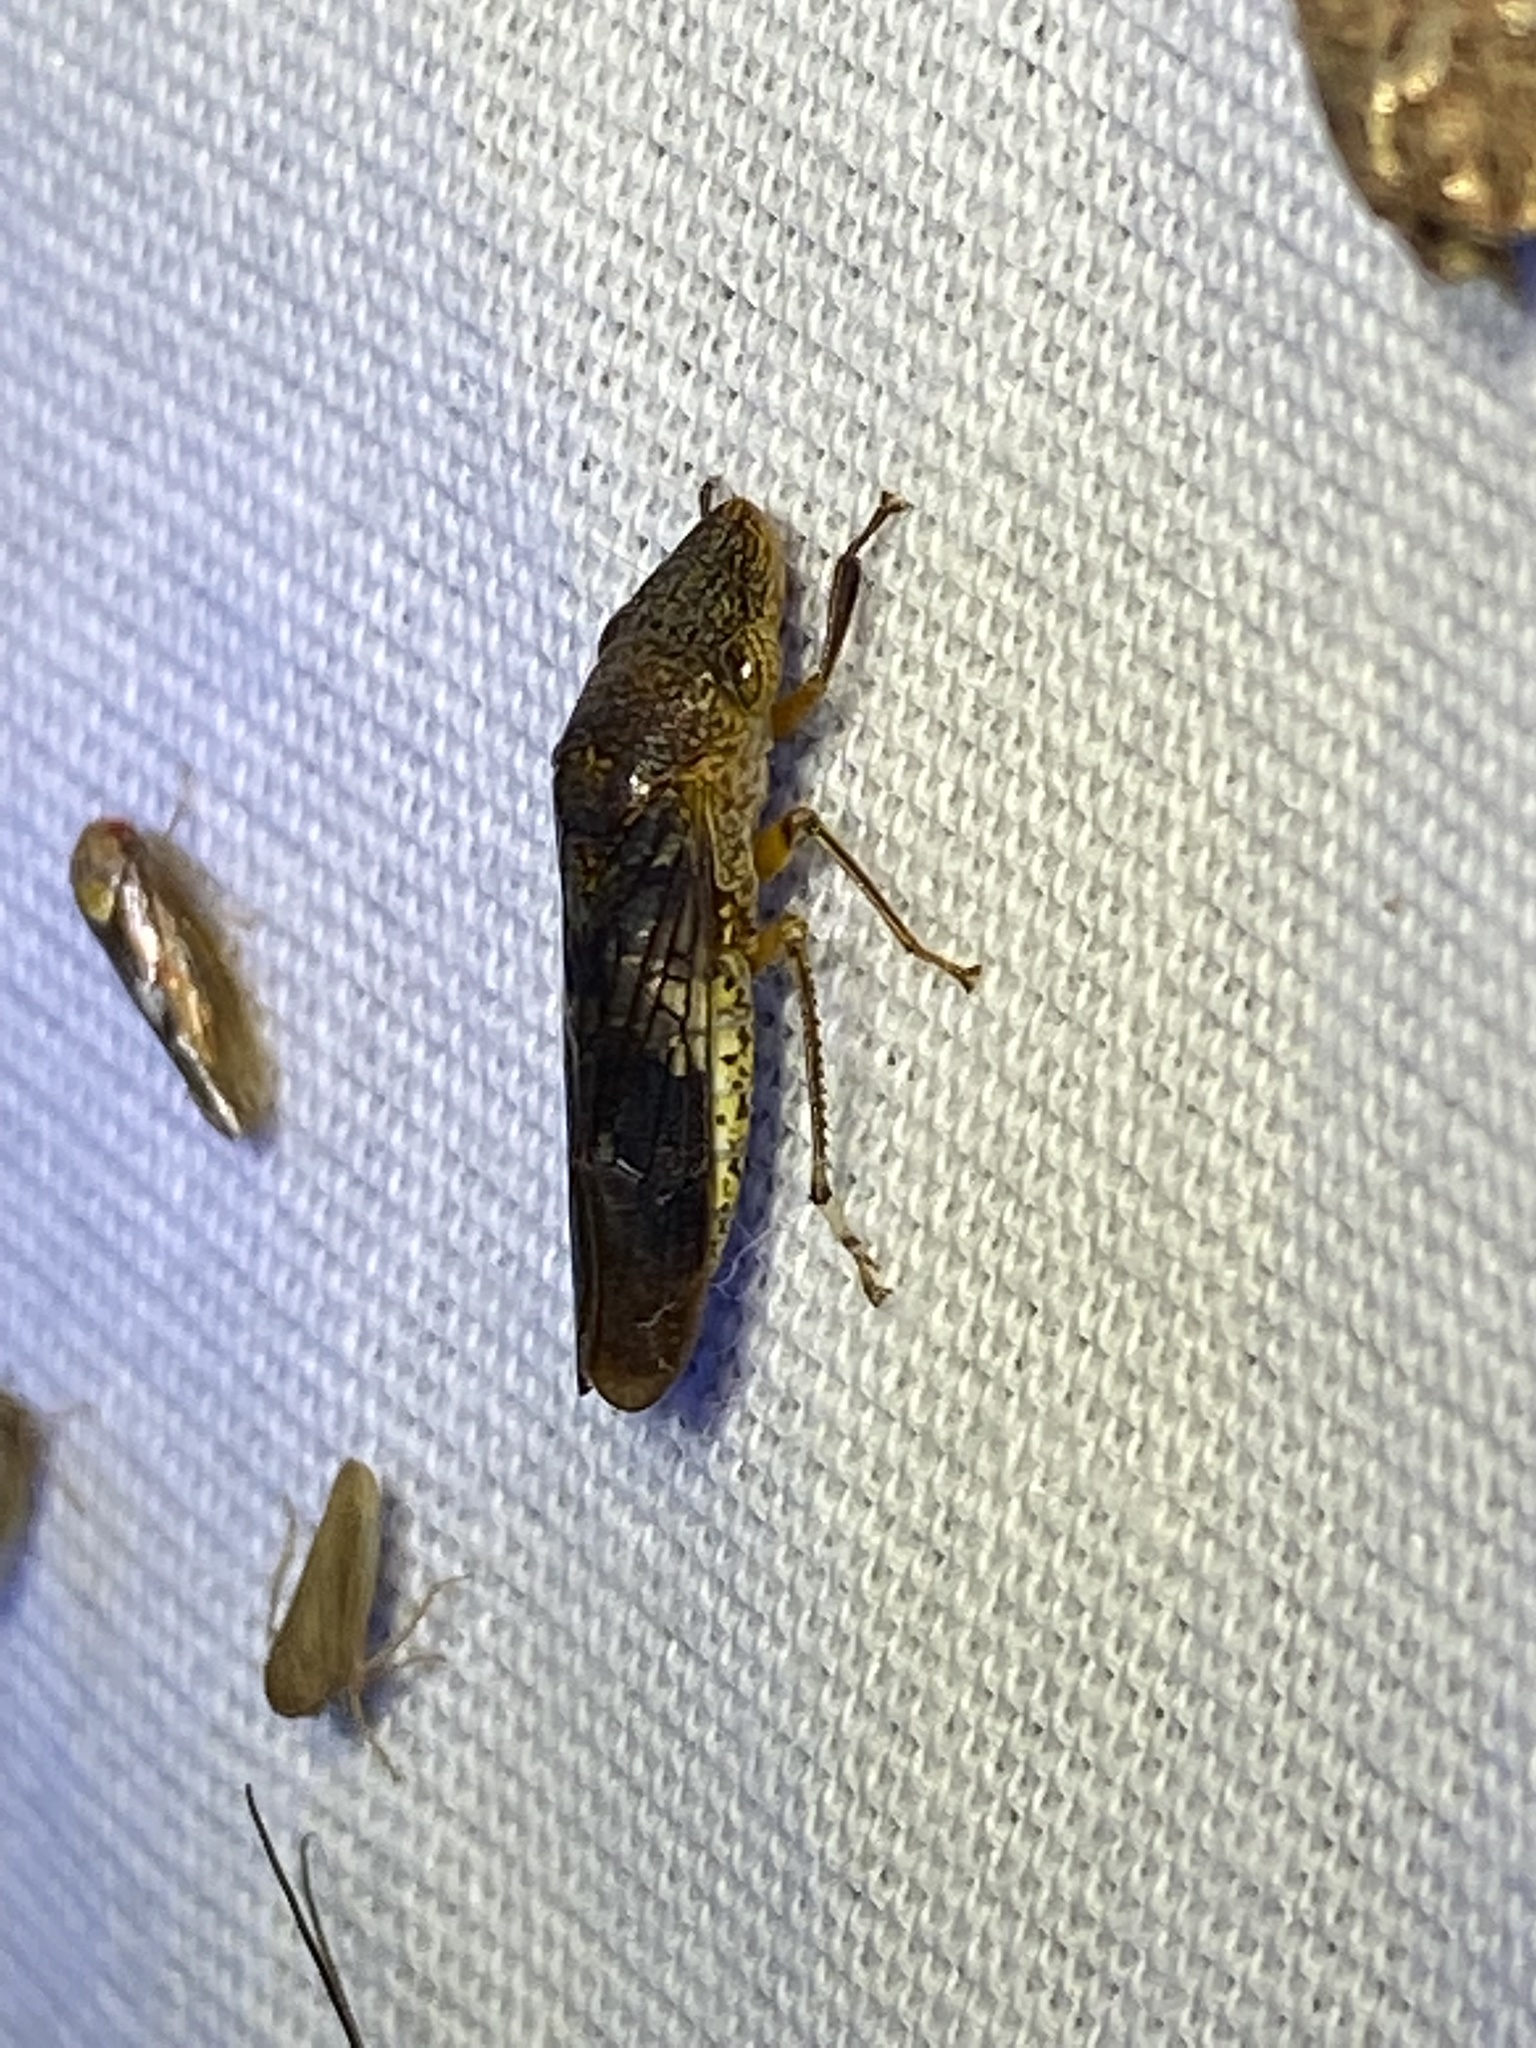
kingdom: Animalia
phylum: Arthropoda
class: Insecta
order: Hemiptera
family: Cicadellidae
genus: Homalodisca
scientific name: Homalodisca vitripennis
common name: Glassy-winged sharpshooter
